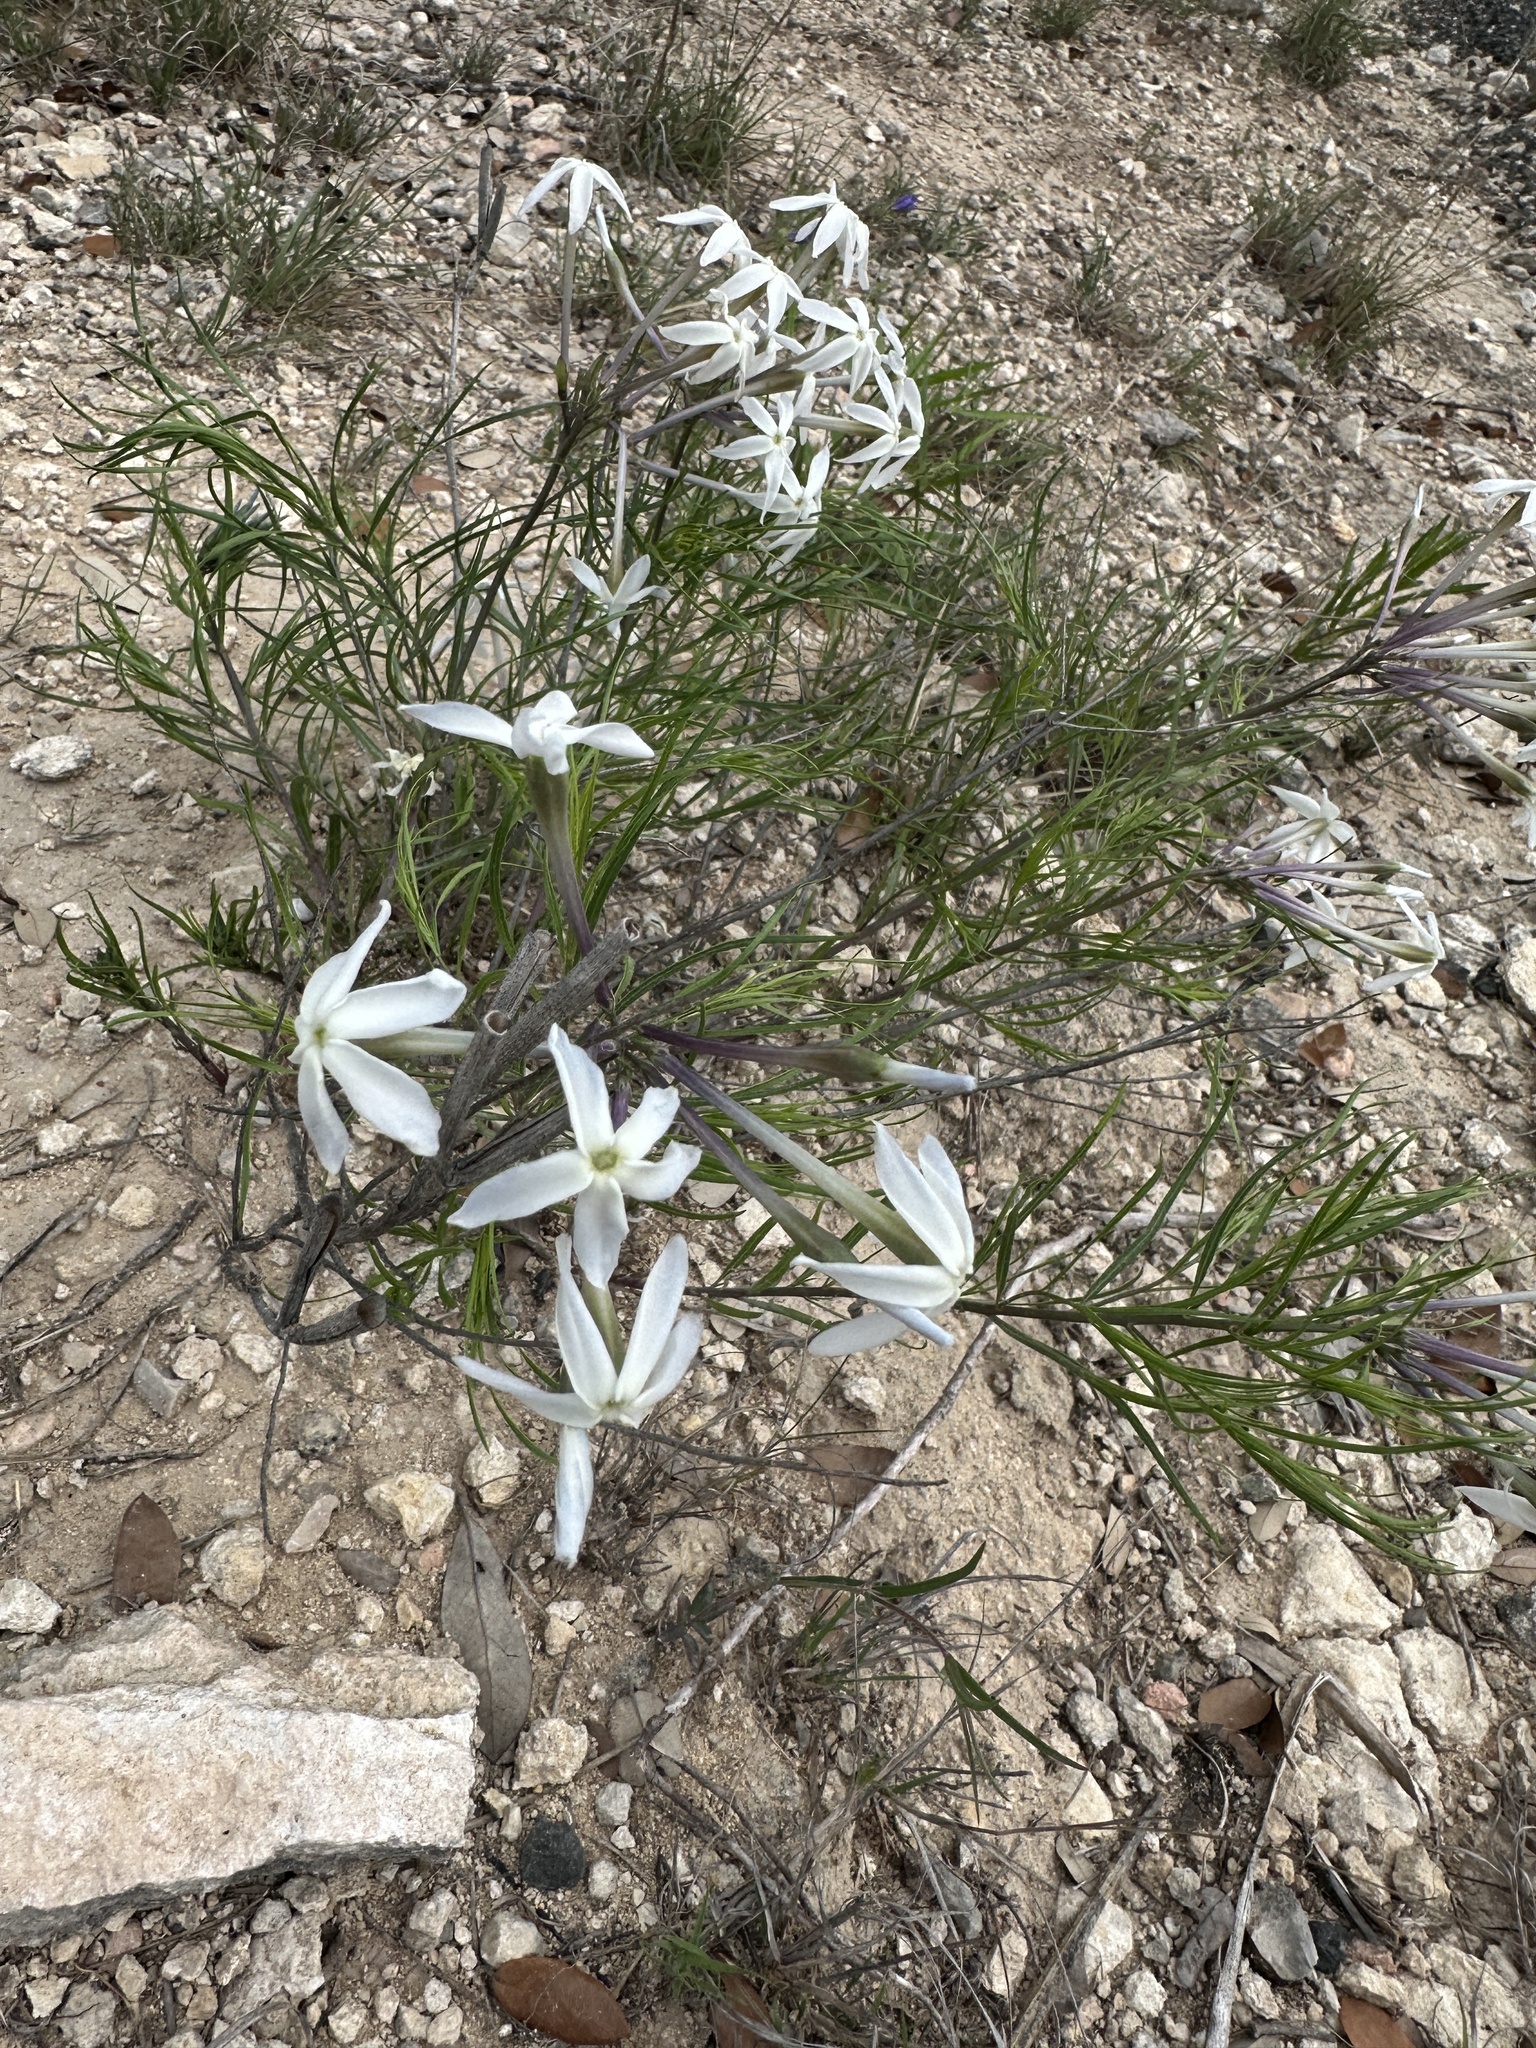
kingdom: Plantae
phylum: Tracheophyta
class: Magnoliopsida
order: Gentianales
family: Apocynaceae
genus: Amsonia
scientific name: Amsonia longiflora
